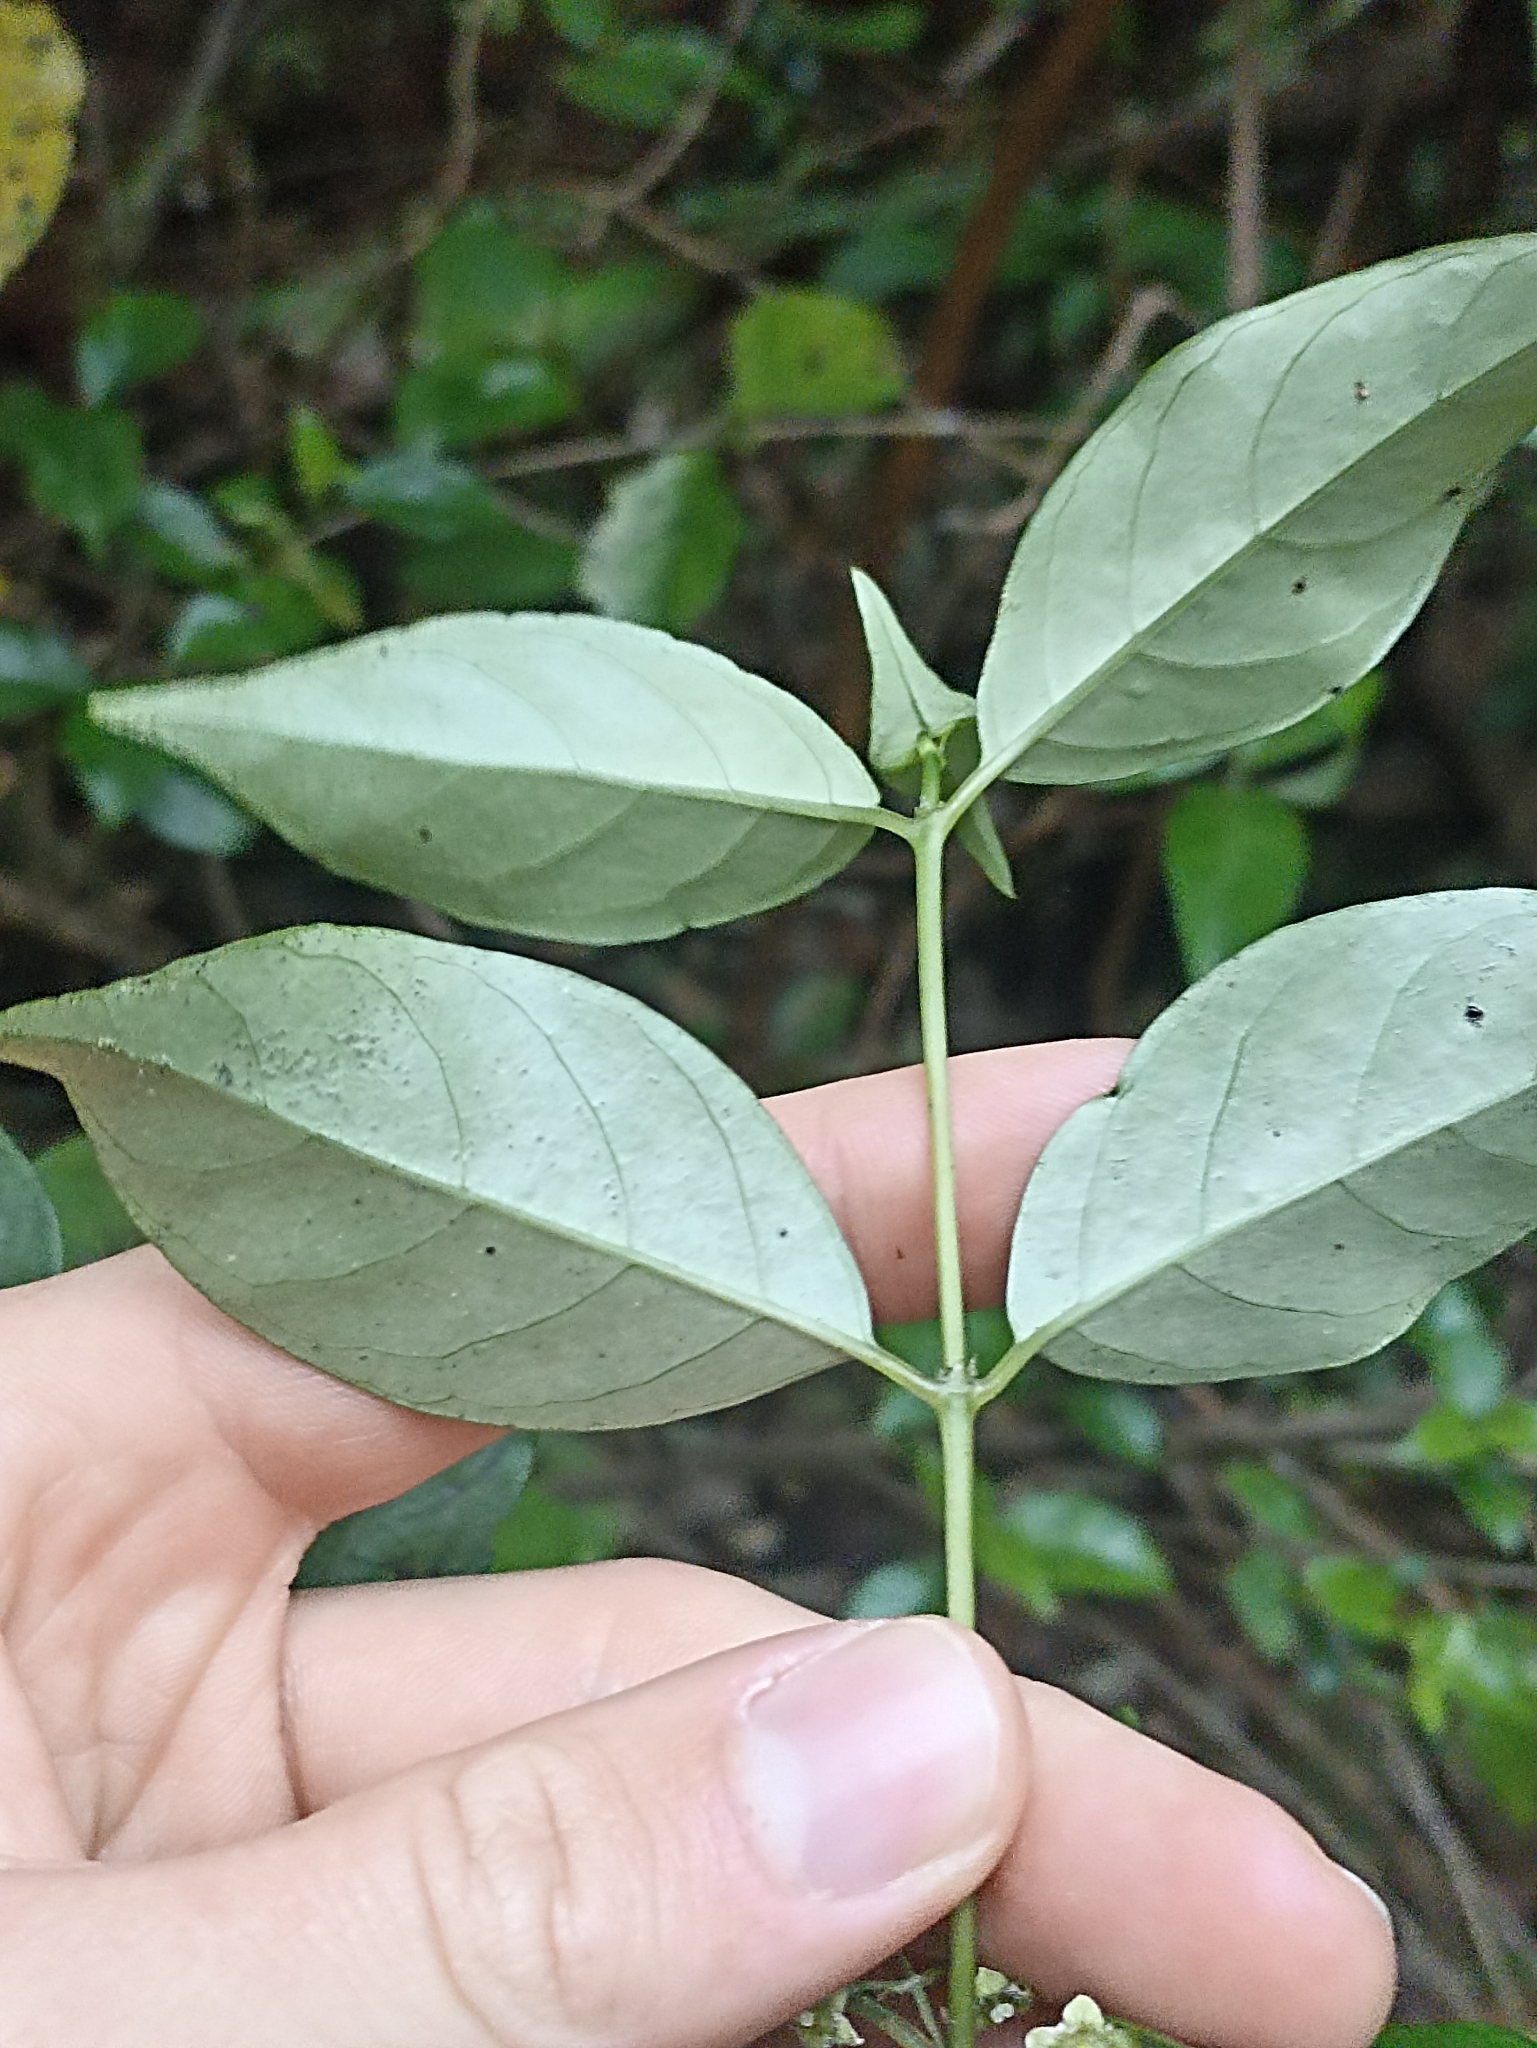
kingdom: Plantae
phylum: Tracheophyta
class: Magnoliopsida
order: Gentianales
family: Loganiaceae
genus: Geniostoma
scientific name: Geniostoma ligustrifolium
